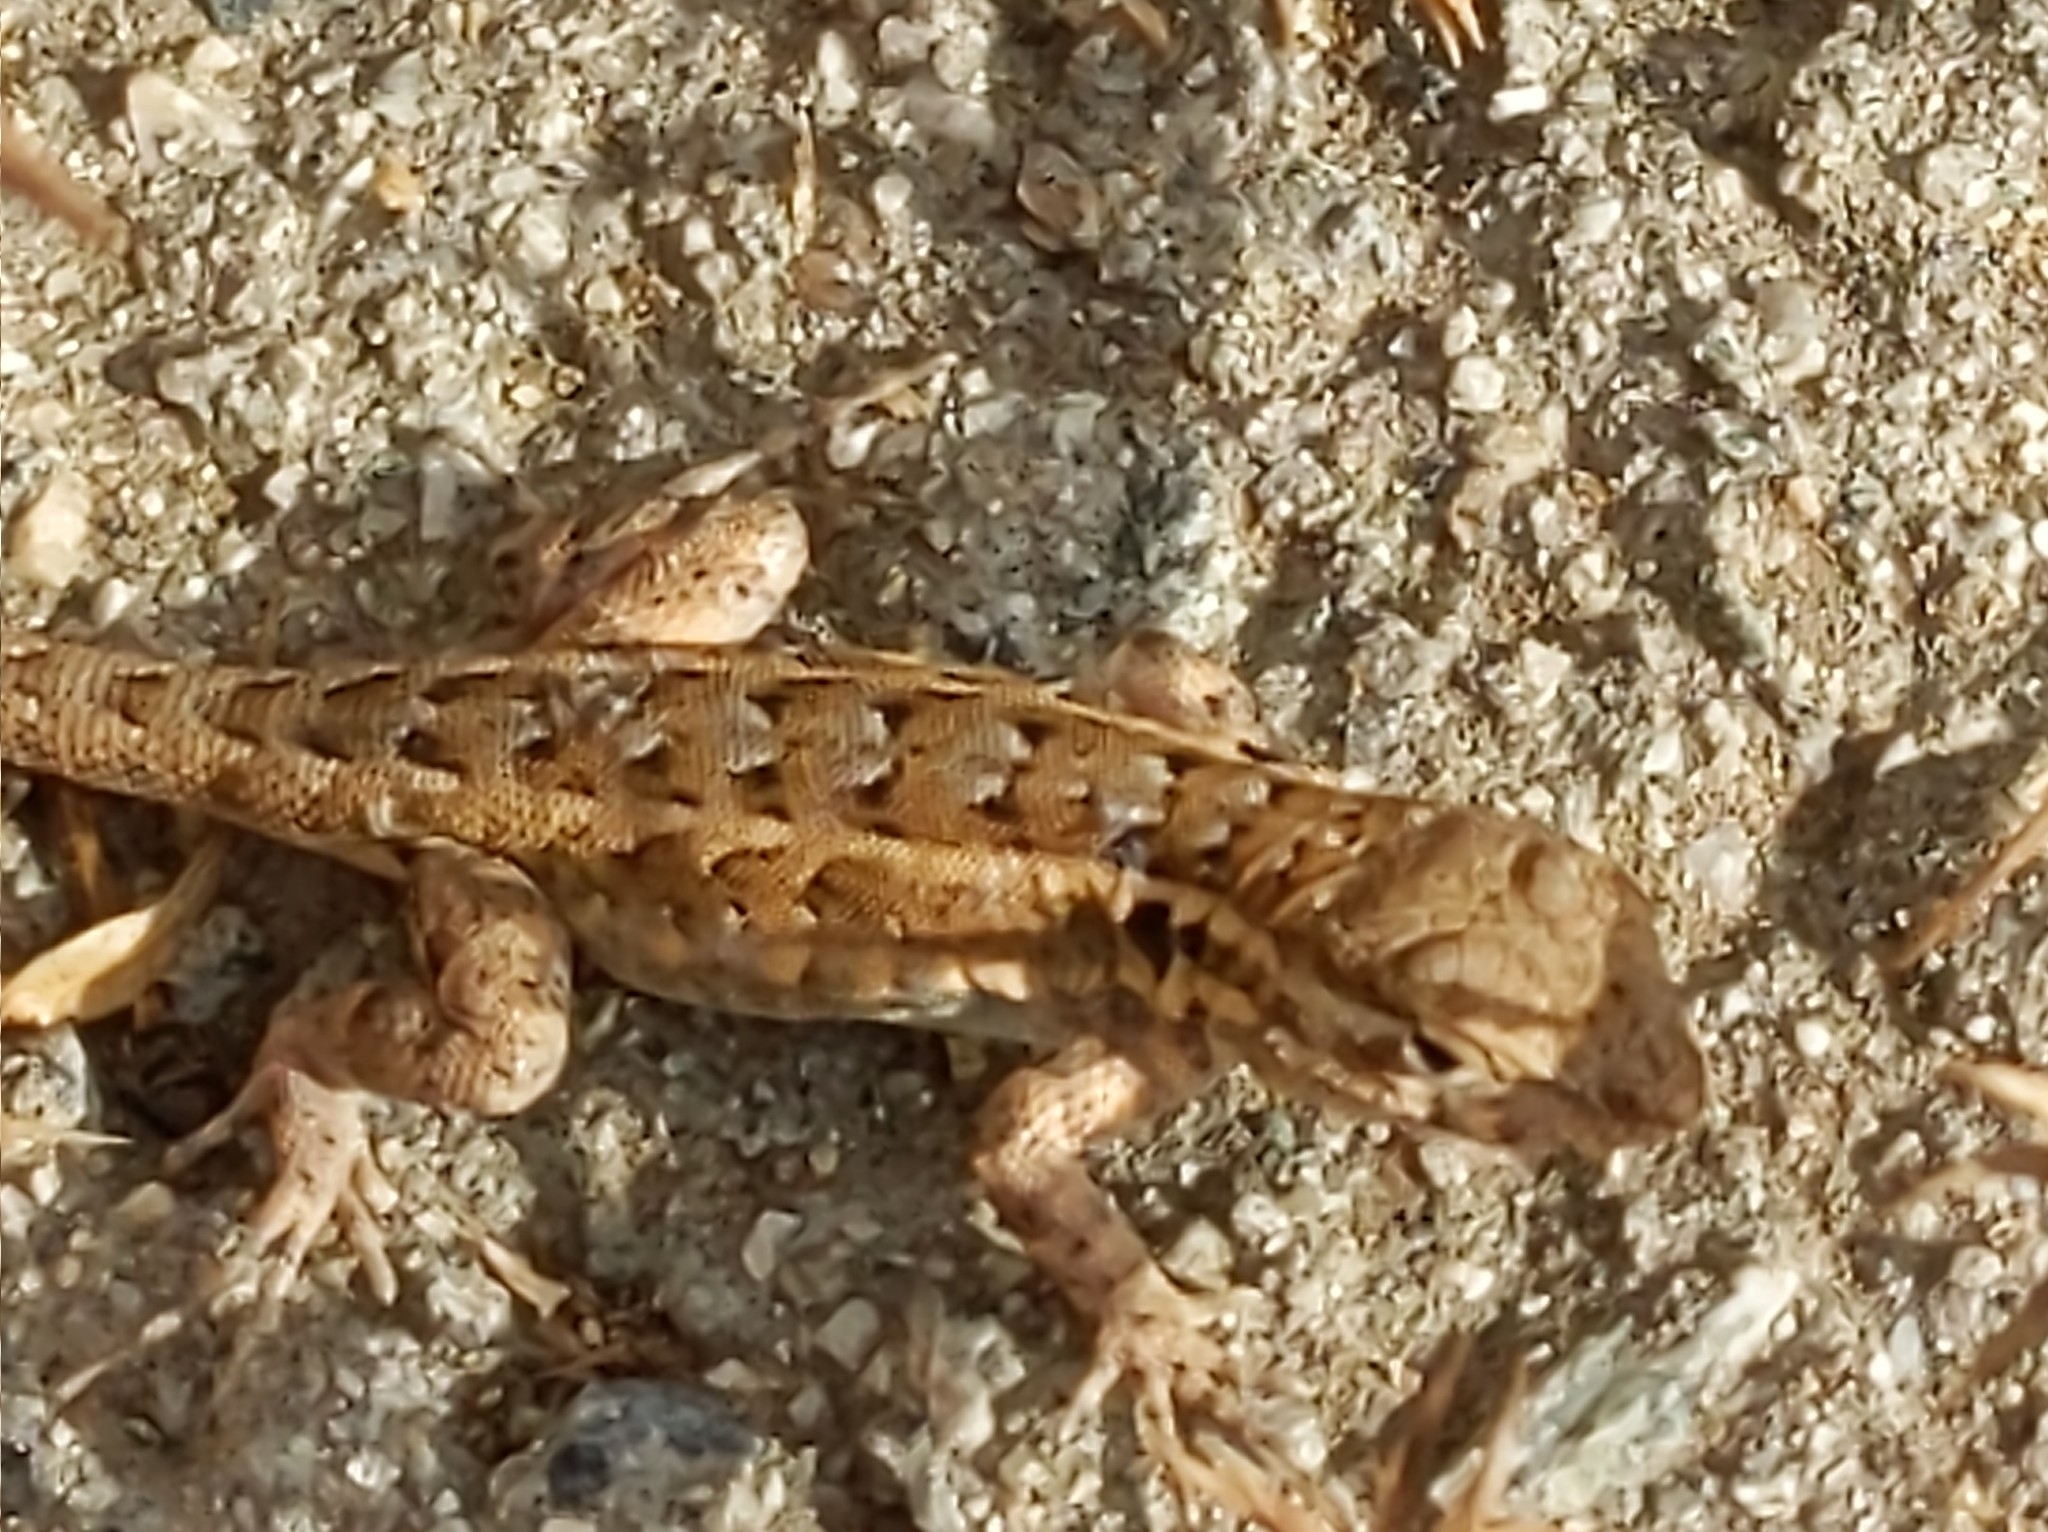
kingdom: Animalia
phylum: Chordata
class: Squamata
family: Phrynosomatidae
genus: Uta
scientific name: Uta stansburiana
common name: Side-blotched lizard
